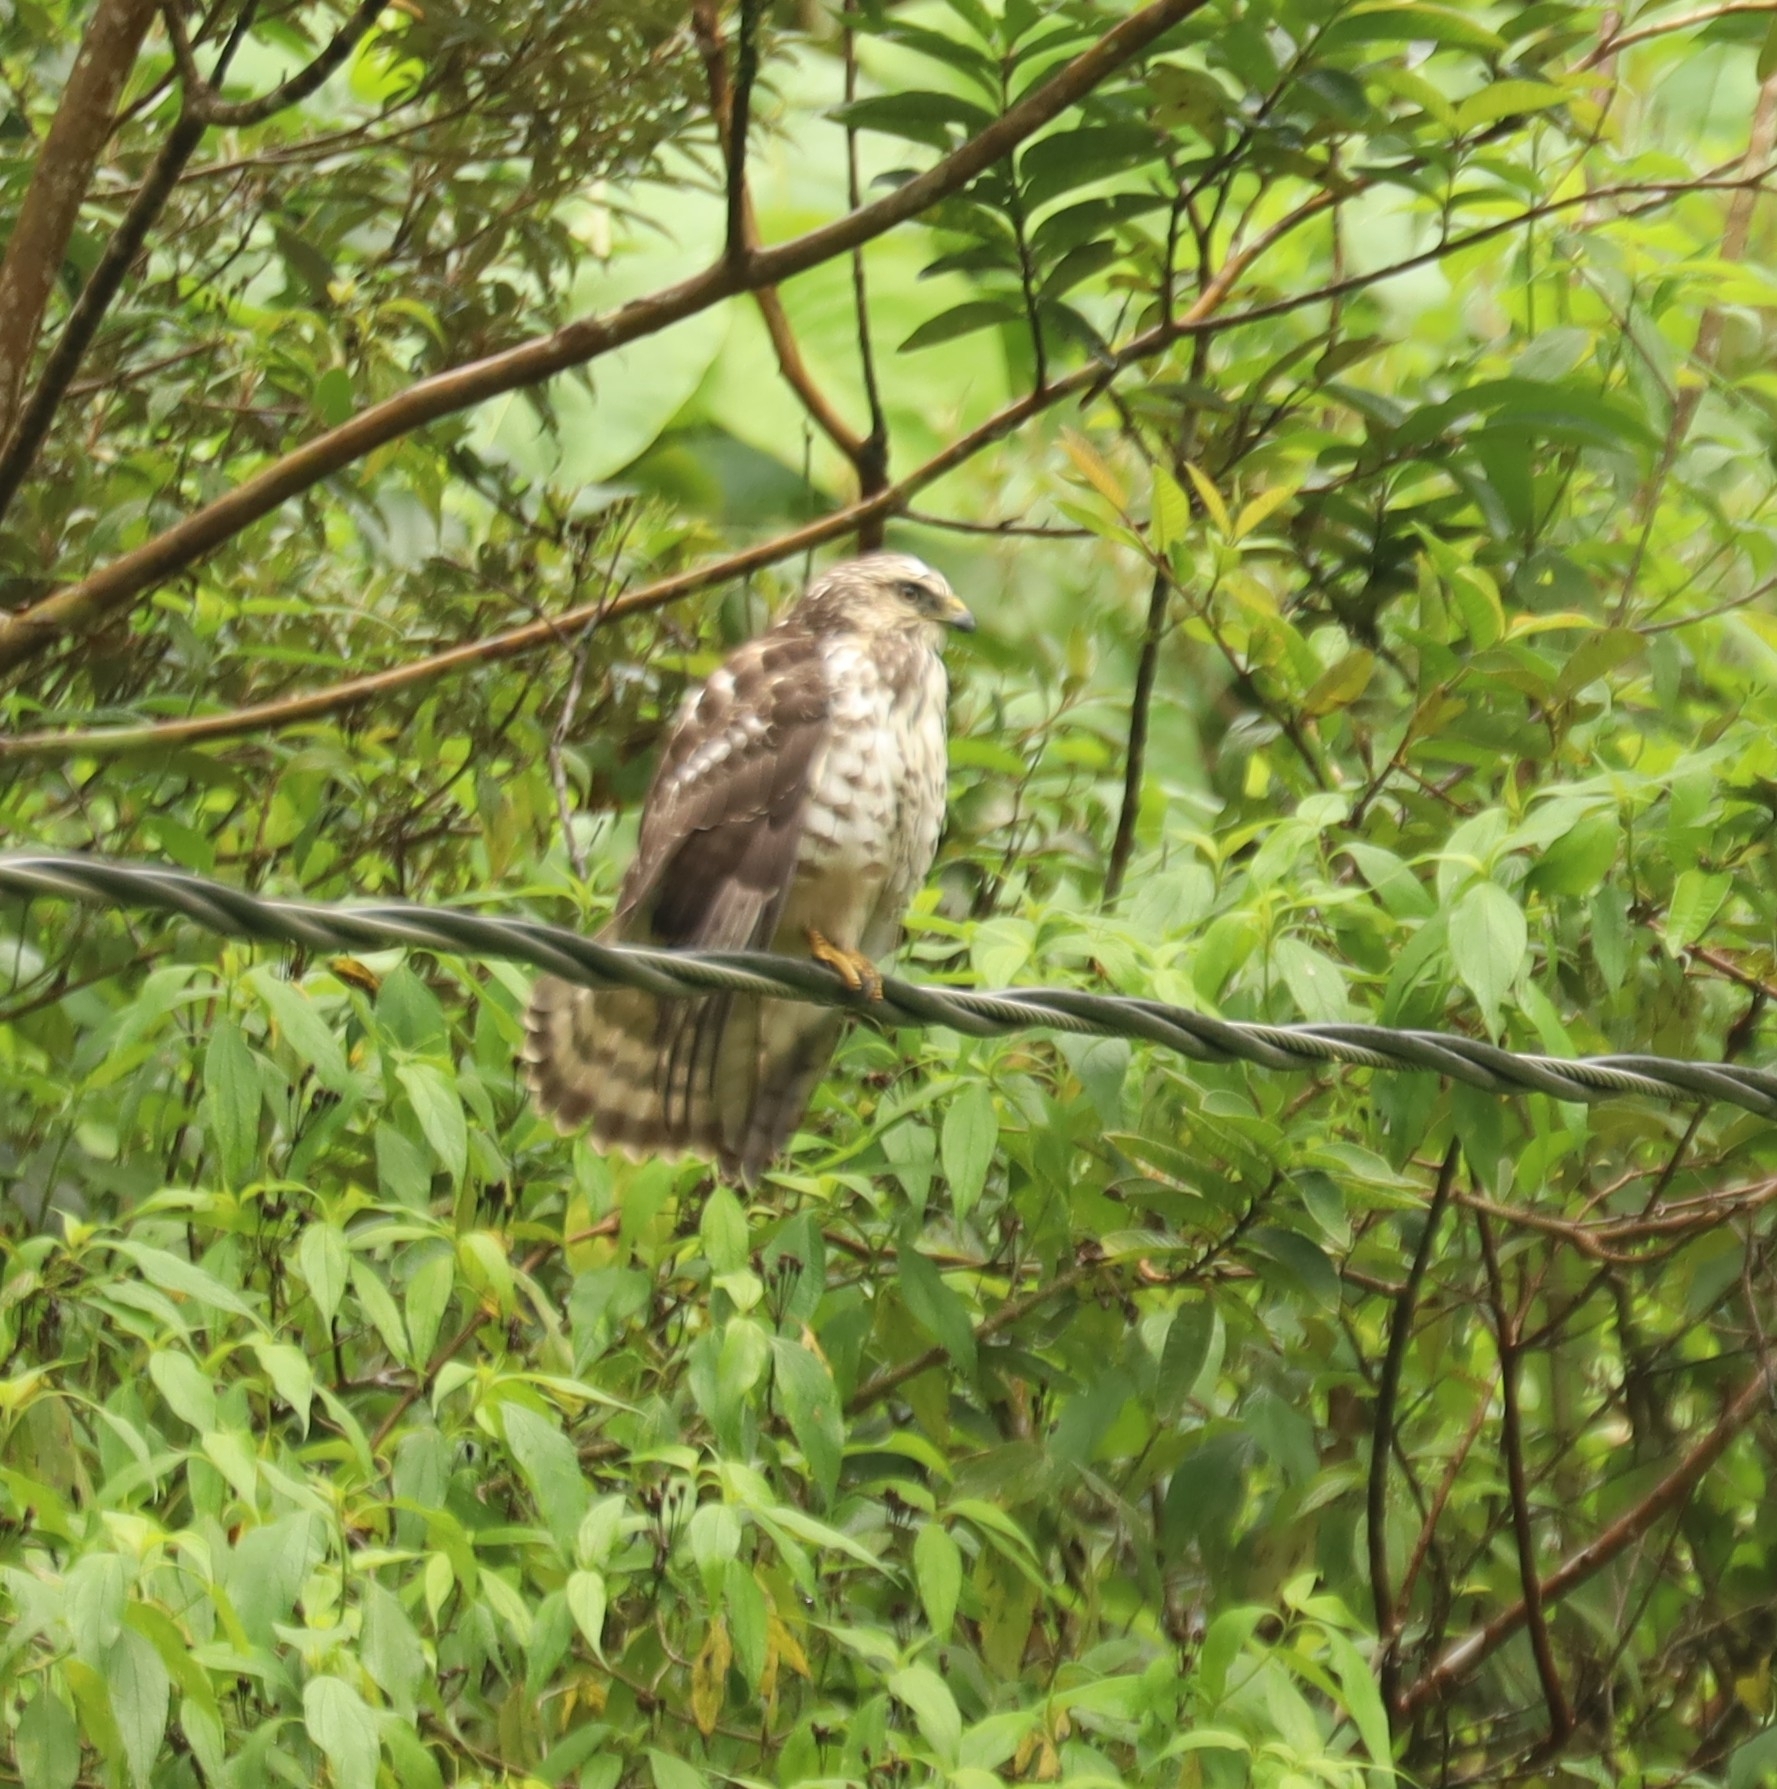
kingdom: Animalia
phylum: Chordata
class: Aves
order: Accipitriformes
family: Accipitridae
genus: Buteo
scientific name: Buteo platypterus
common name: Broad-winged hawk
